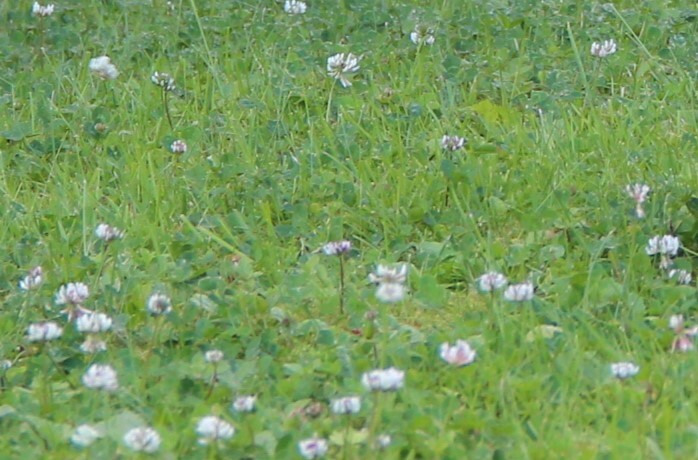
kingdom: Plantae
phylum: Tracheophyta
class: Magnoliopsida
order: Fabales
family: Fabaceae
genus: Trifolium
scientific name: Trifolium repens
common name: White clover
